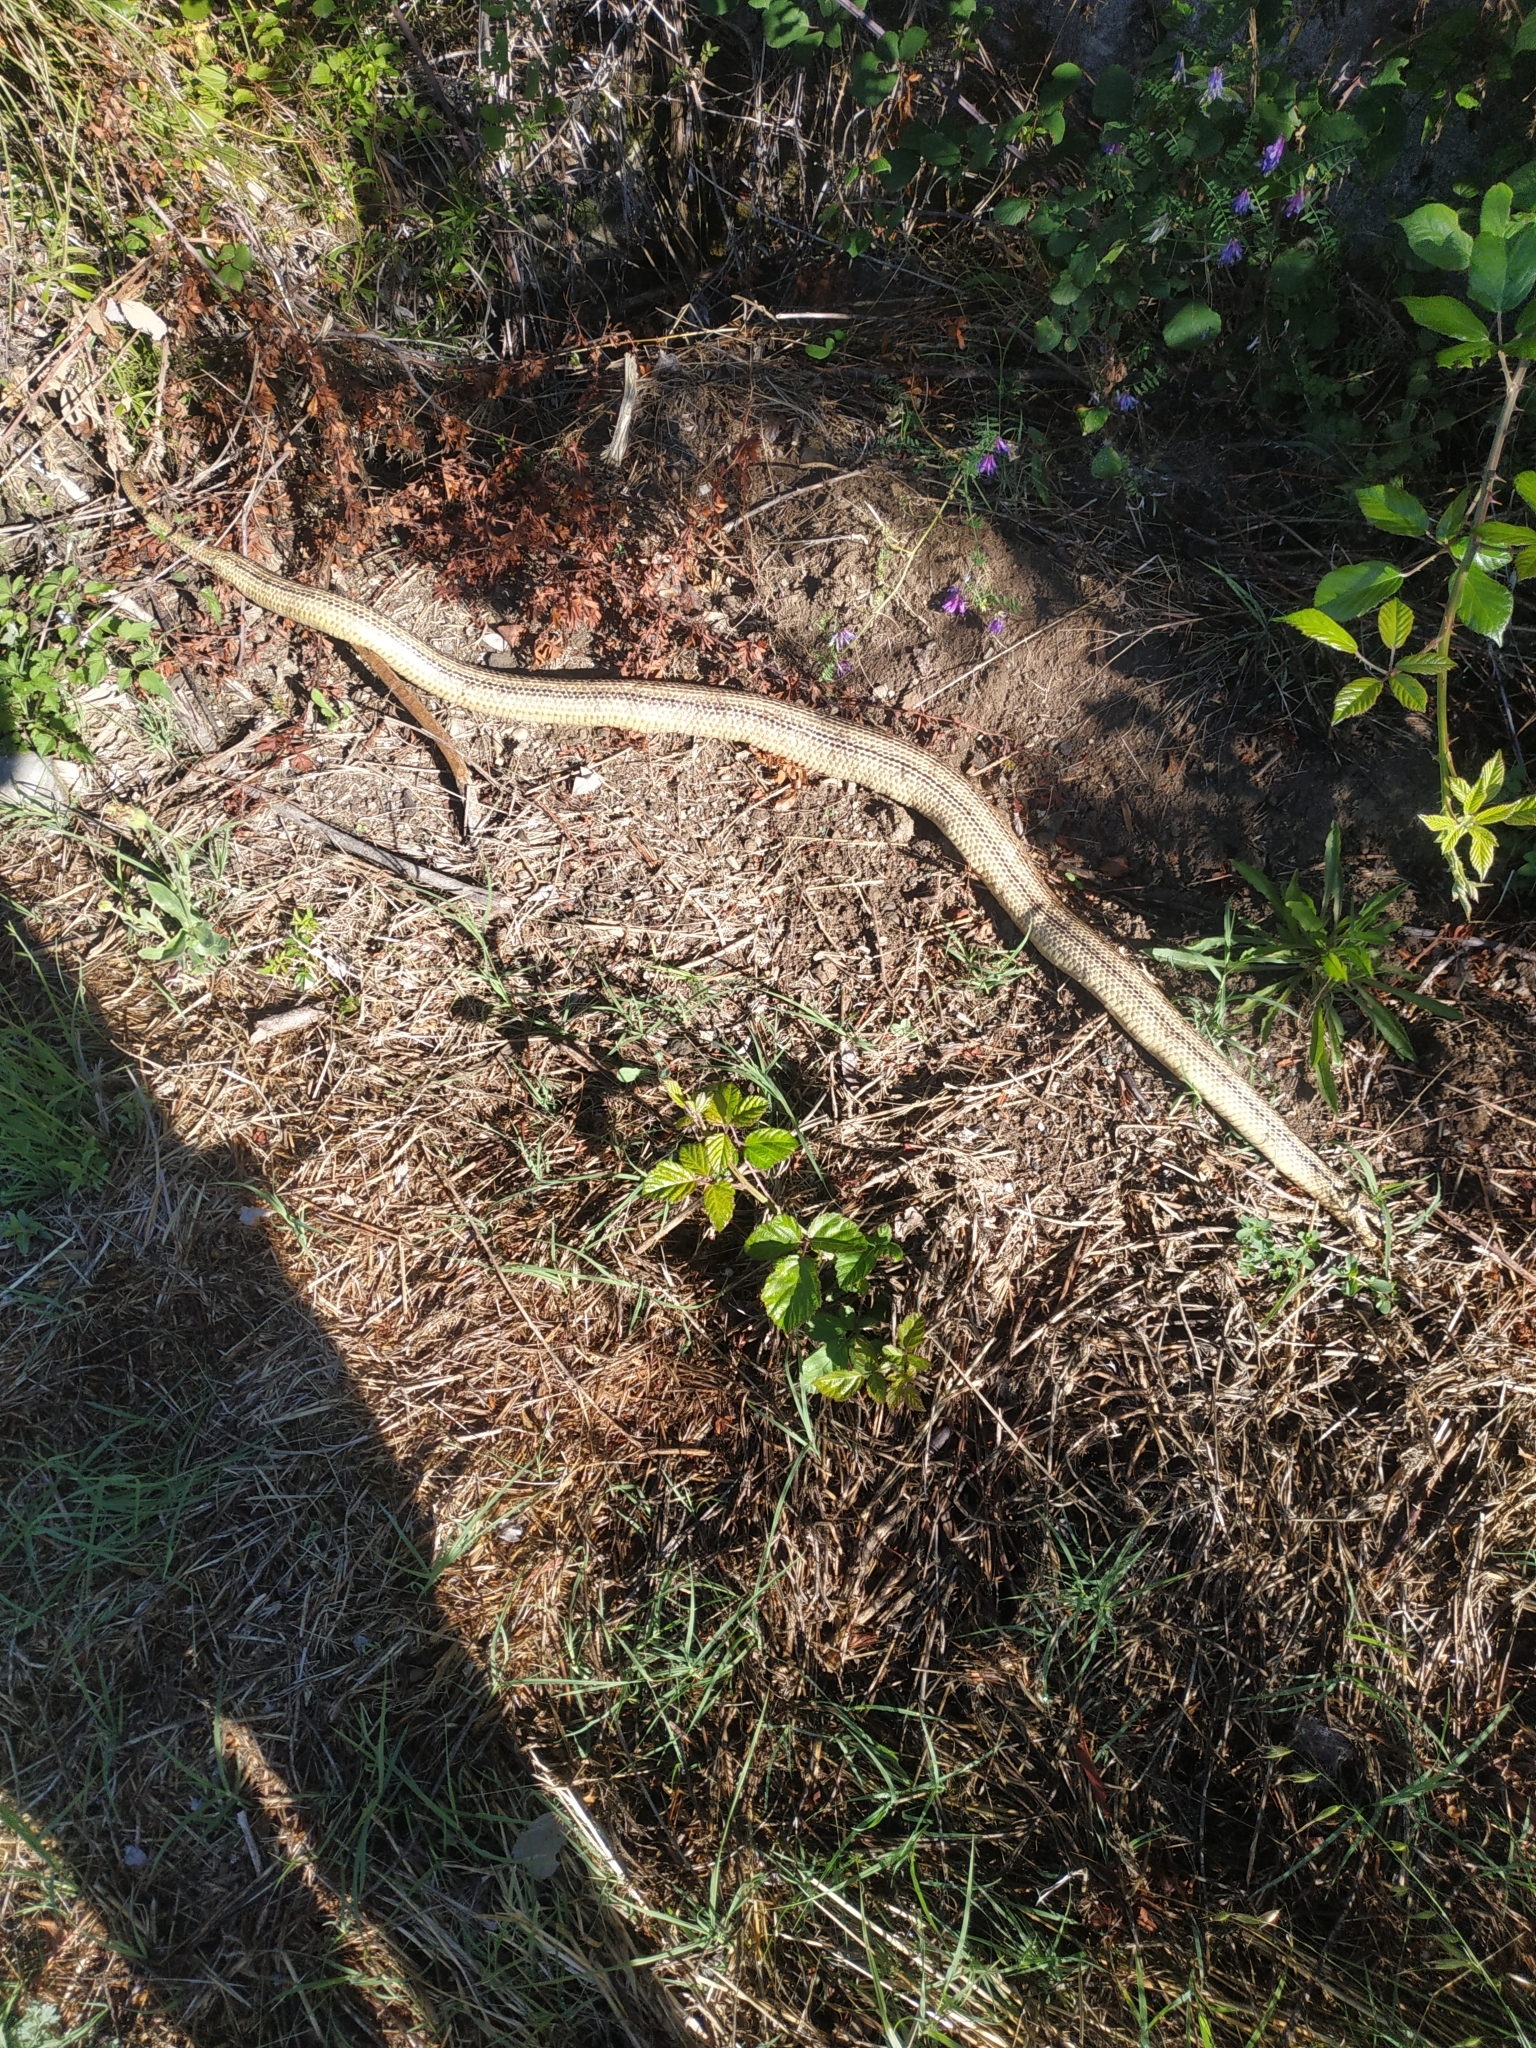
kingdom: Animalia
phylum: Chordata
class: Squamata
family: Colubridae
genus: Elaphe
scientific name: Elaphe quatuorlineata
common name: Four-lined snake
